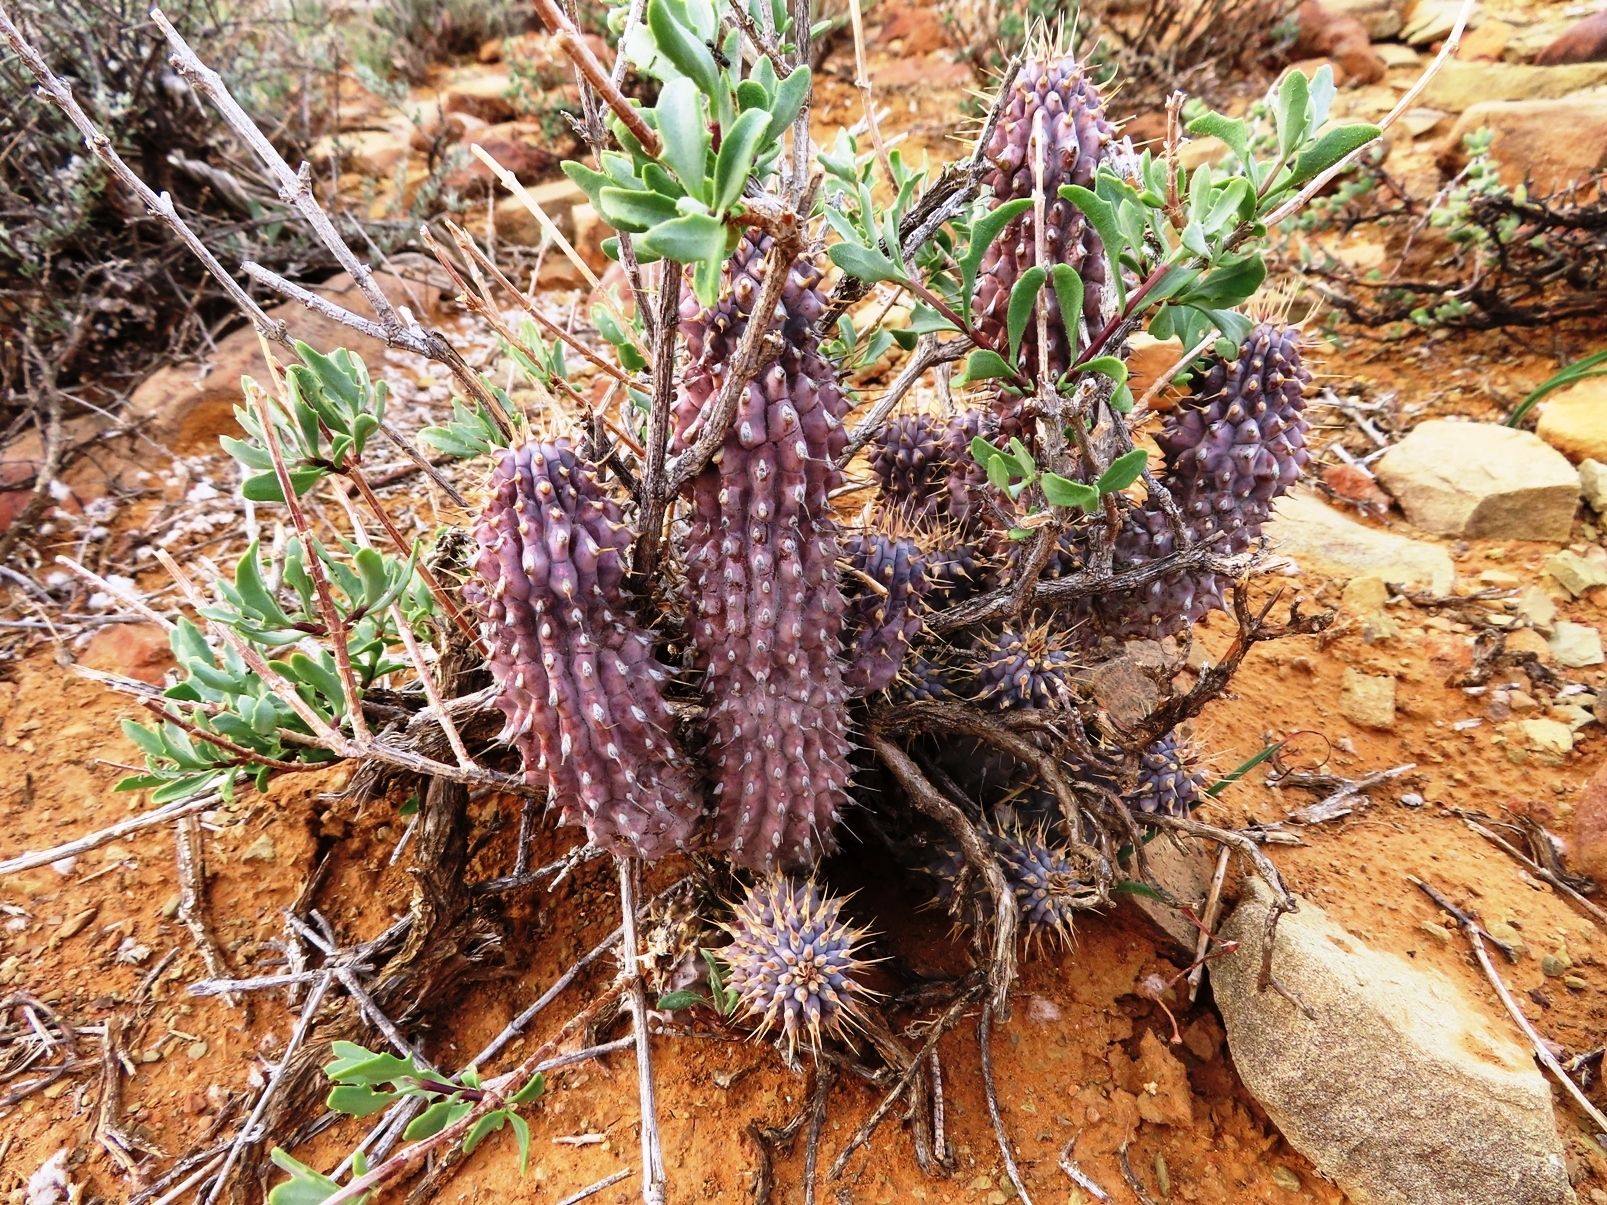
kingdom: Plantae
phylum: Tracheophyta
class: Magnoliopsida
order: Gentianales
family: Apocynaceae
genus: Hoodia
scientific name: Hoodia gordonii
